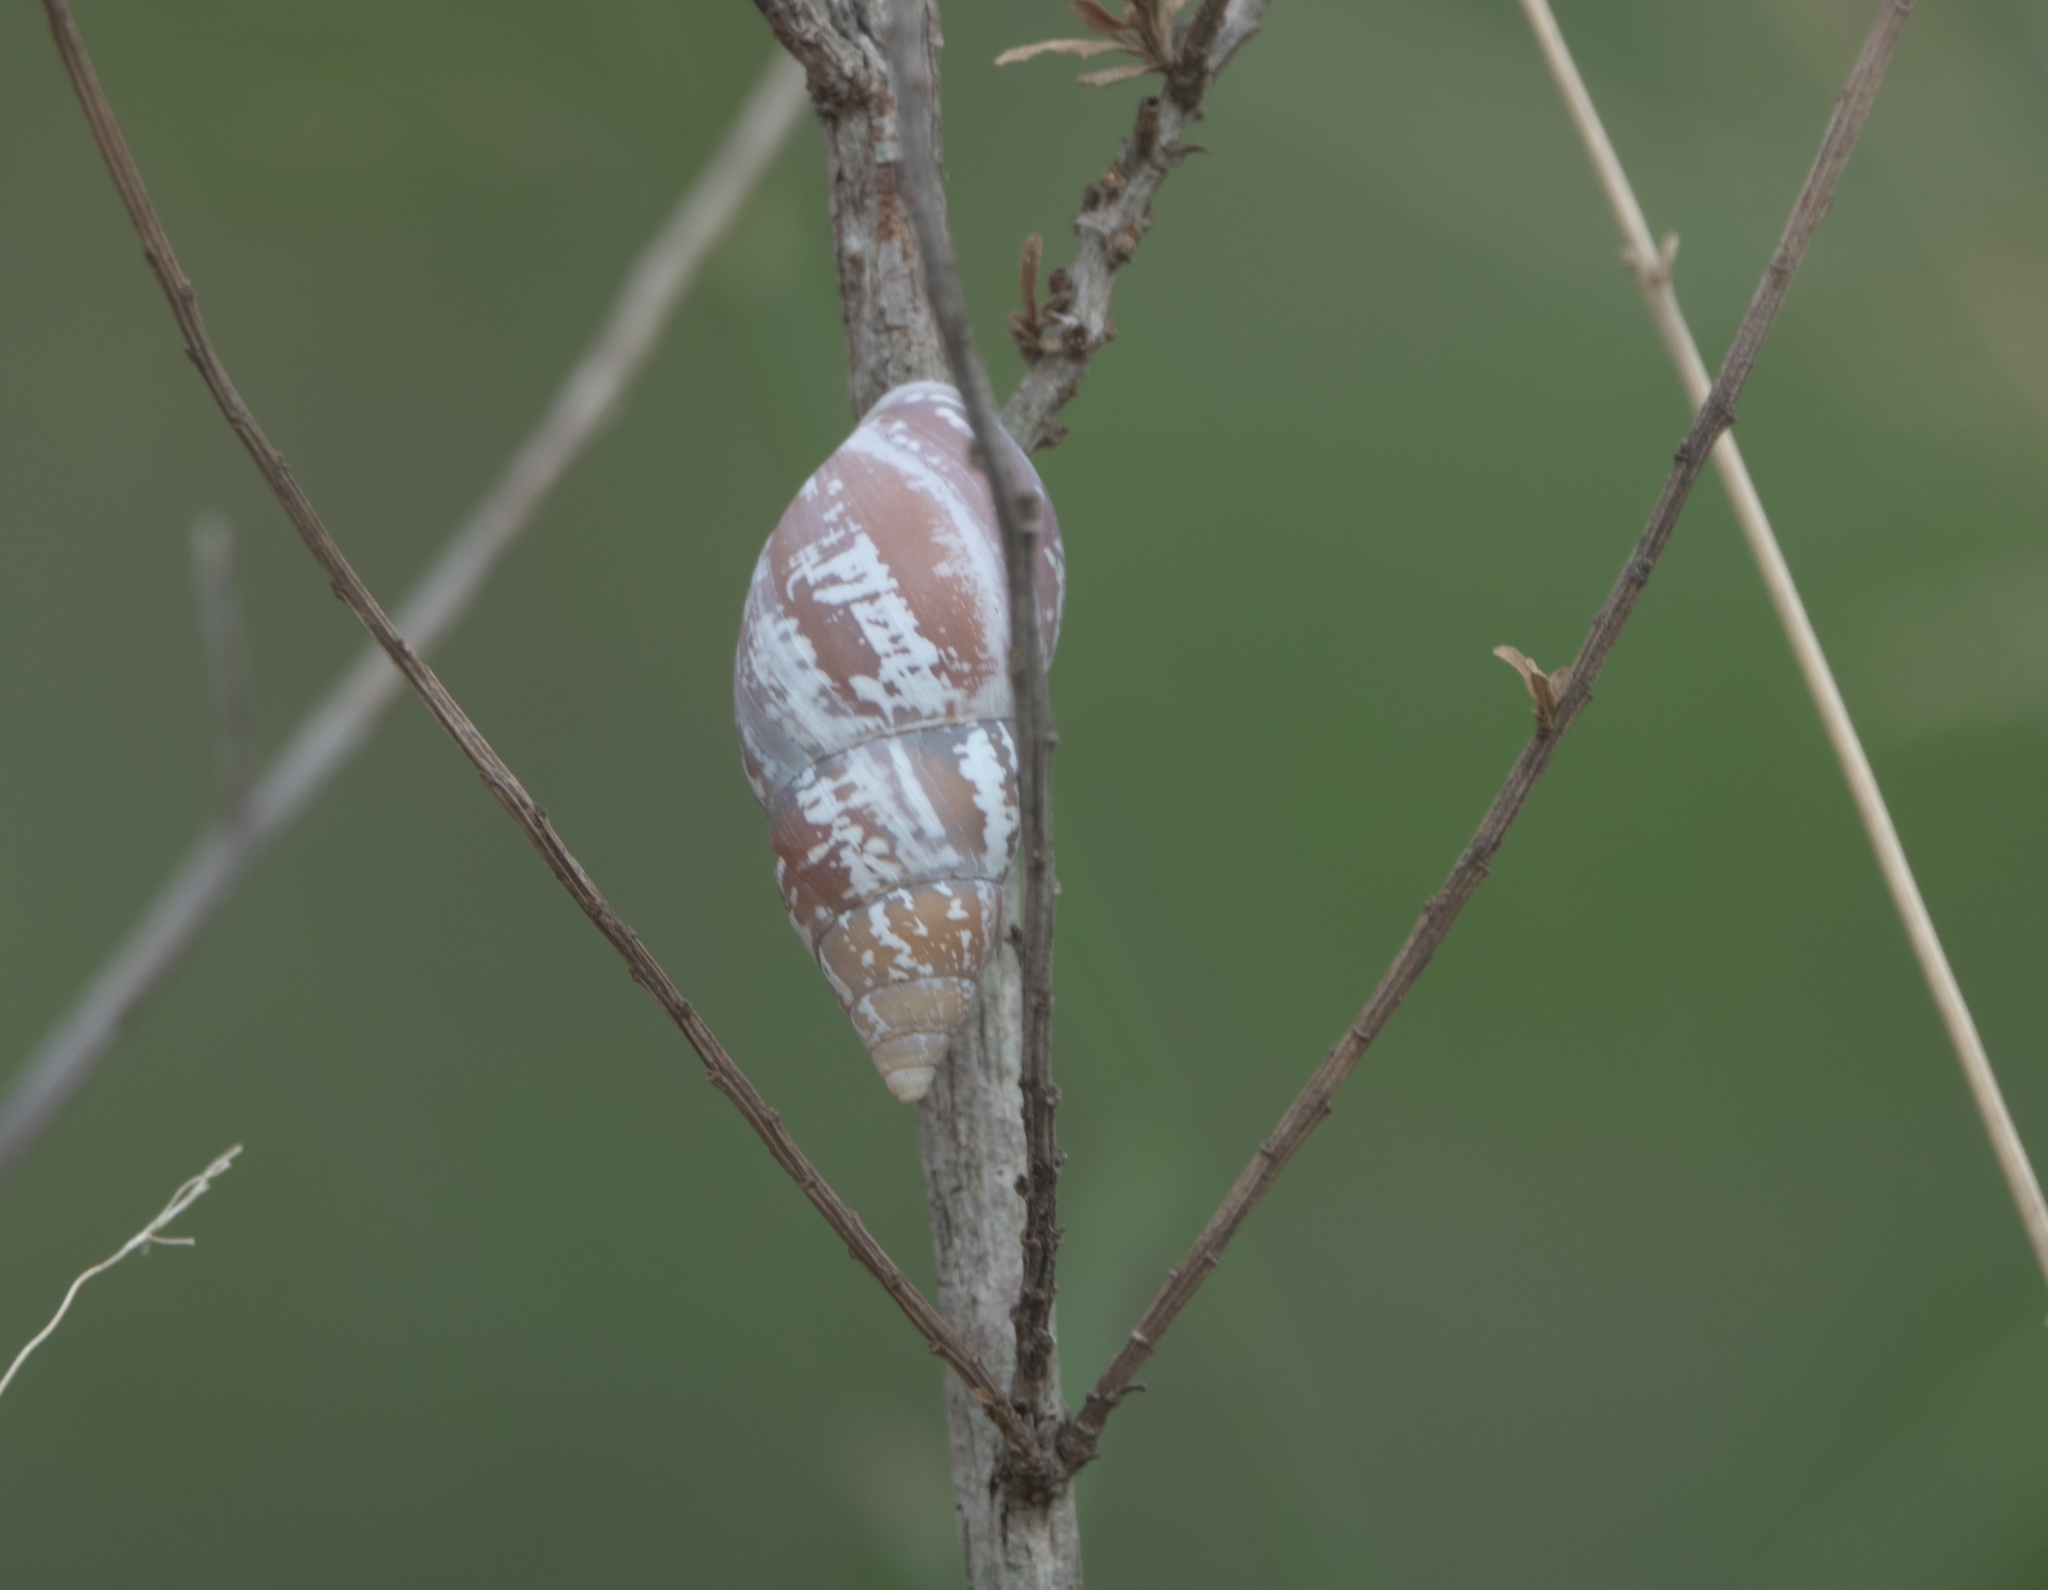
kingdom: Animalia
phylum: Mollusca
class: Gastropoda
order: Stylommatophora
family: Bulimulidae
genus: Rabdotus
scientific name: Rabdotus alternatus
